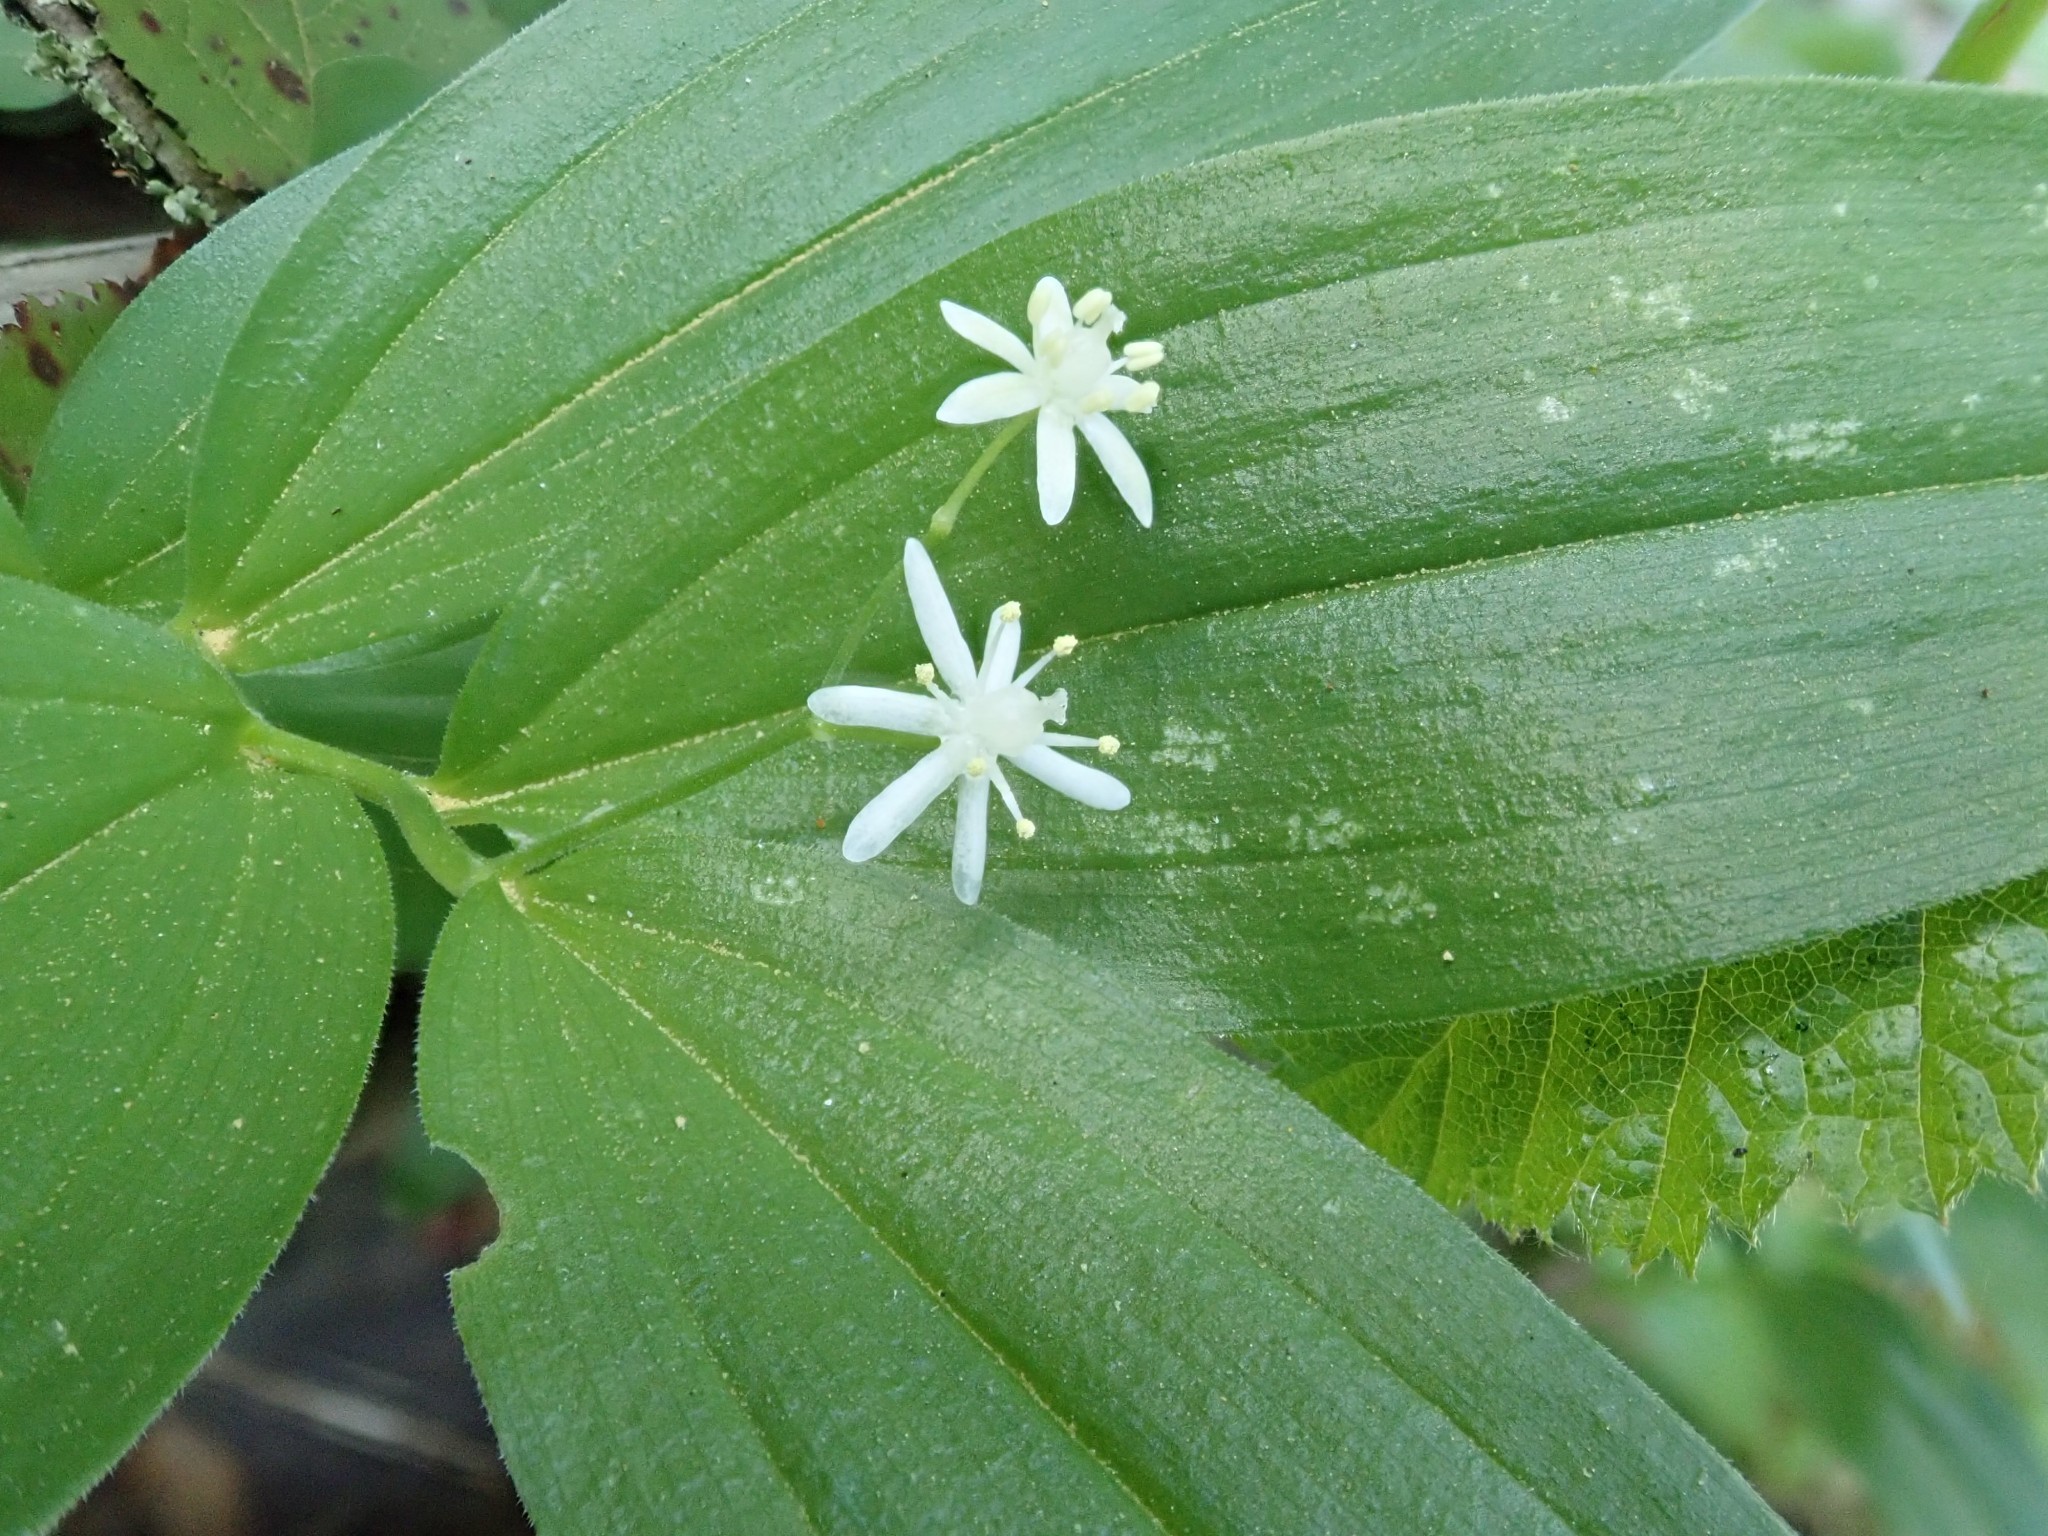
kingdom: Plantae
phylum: Tracheophyta
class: Liliopsida
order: Asparagales
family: Asparagaceae
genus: Maianthemum
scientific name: Maianthemum stellatum
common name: Little false solomon's seal
